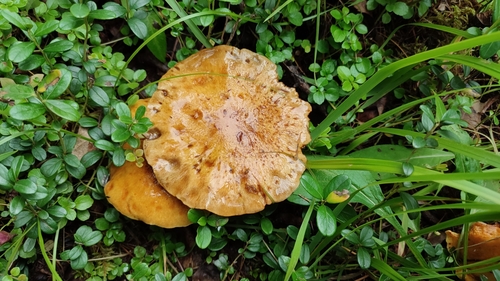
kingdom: Fungi
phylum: Basidiomycota
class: Agaricomycetes
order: Boletales
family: Suillaceae
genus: Suillus
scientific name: Suillus grevillei
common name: Larch bolete
